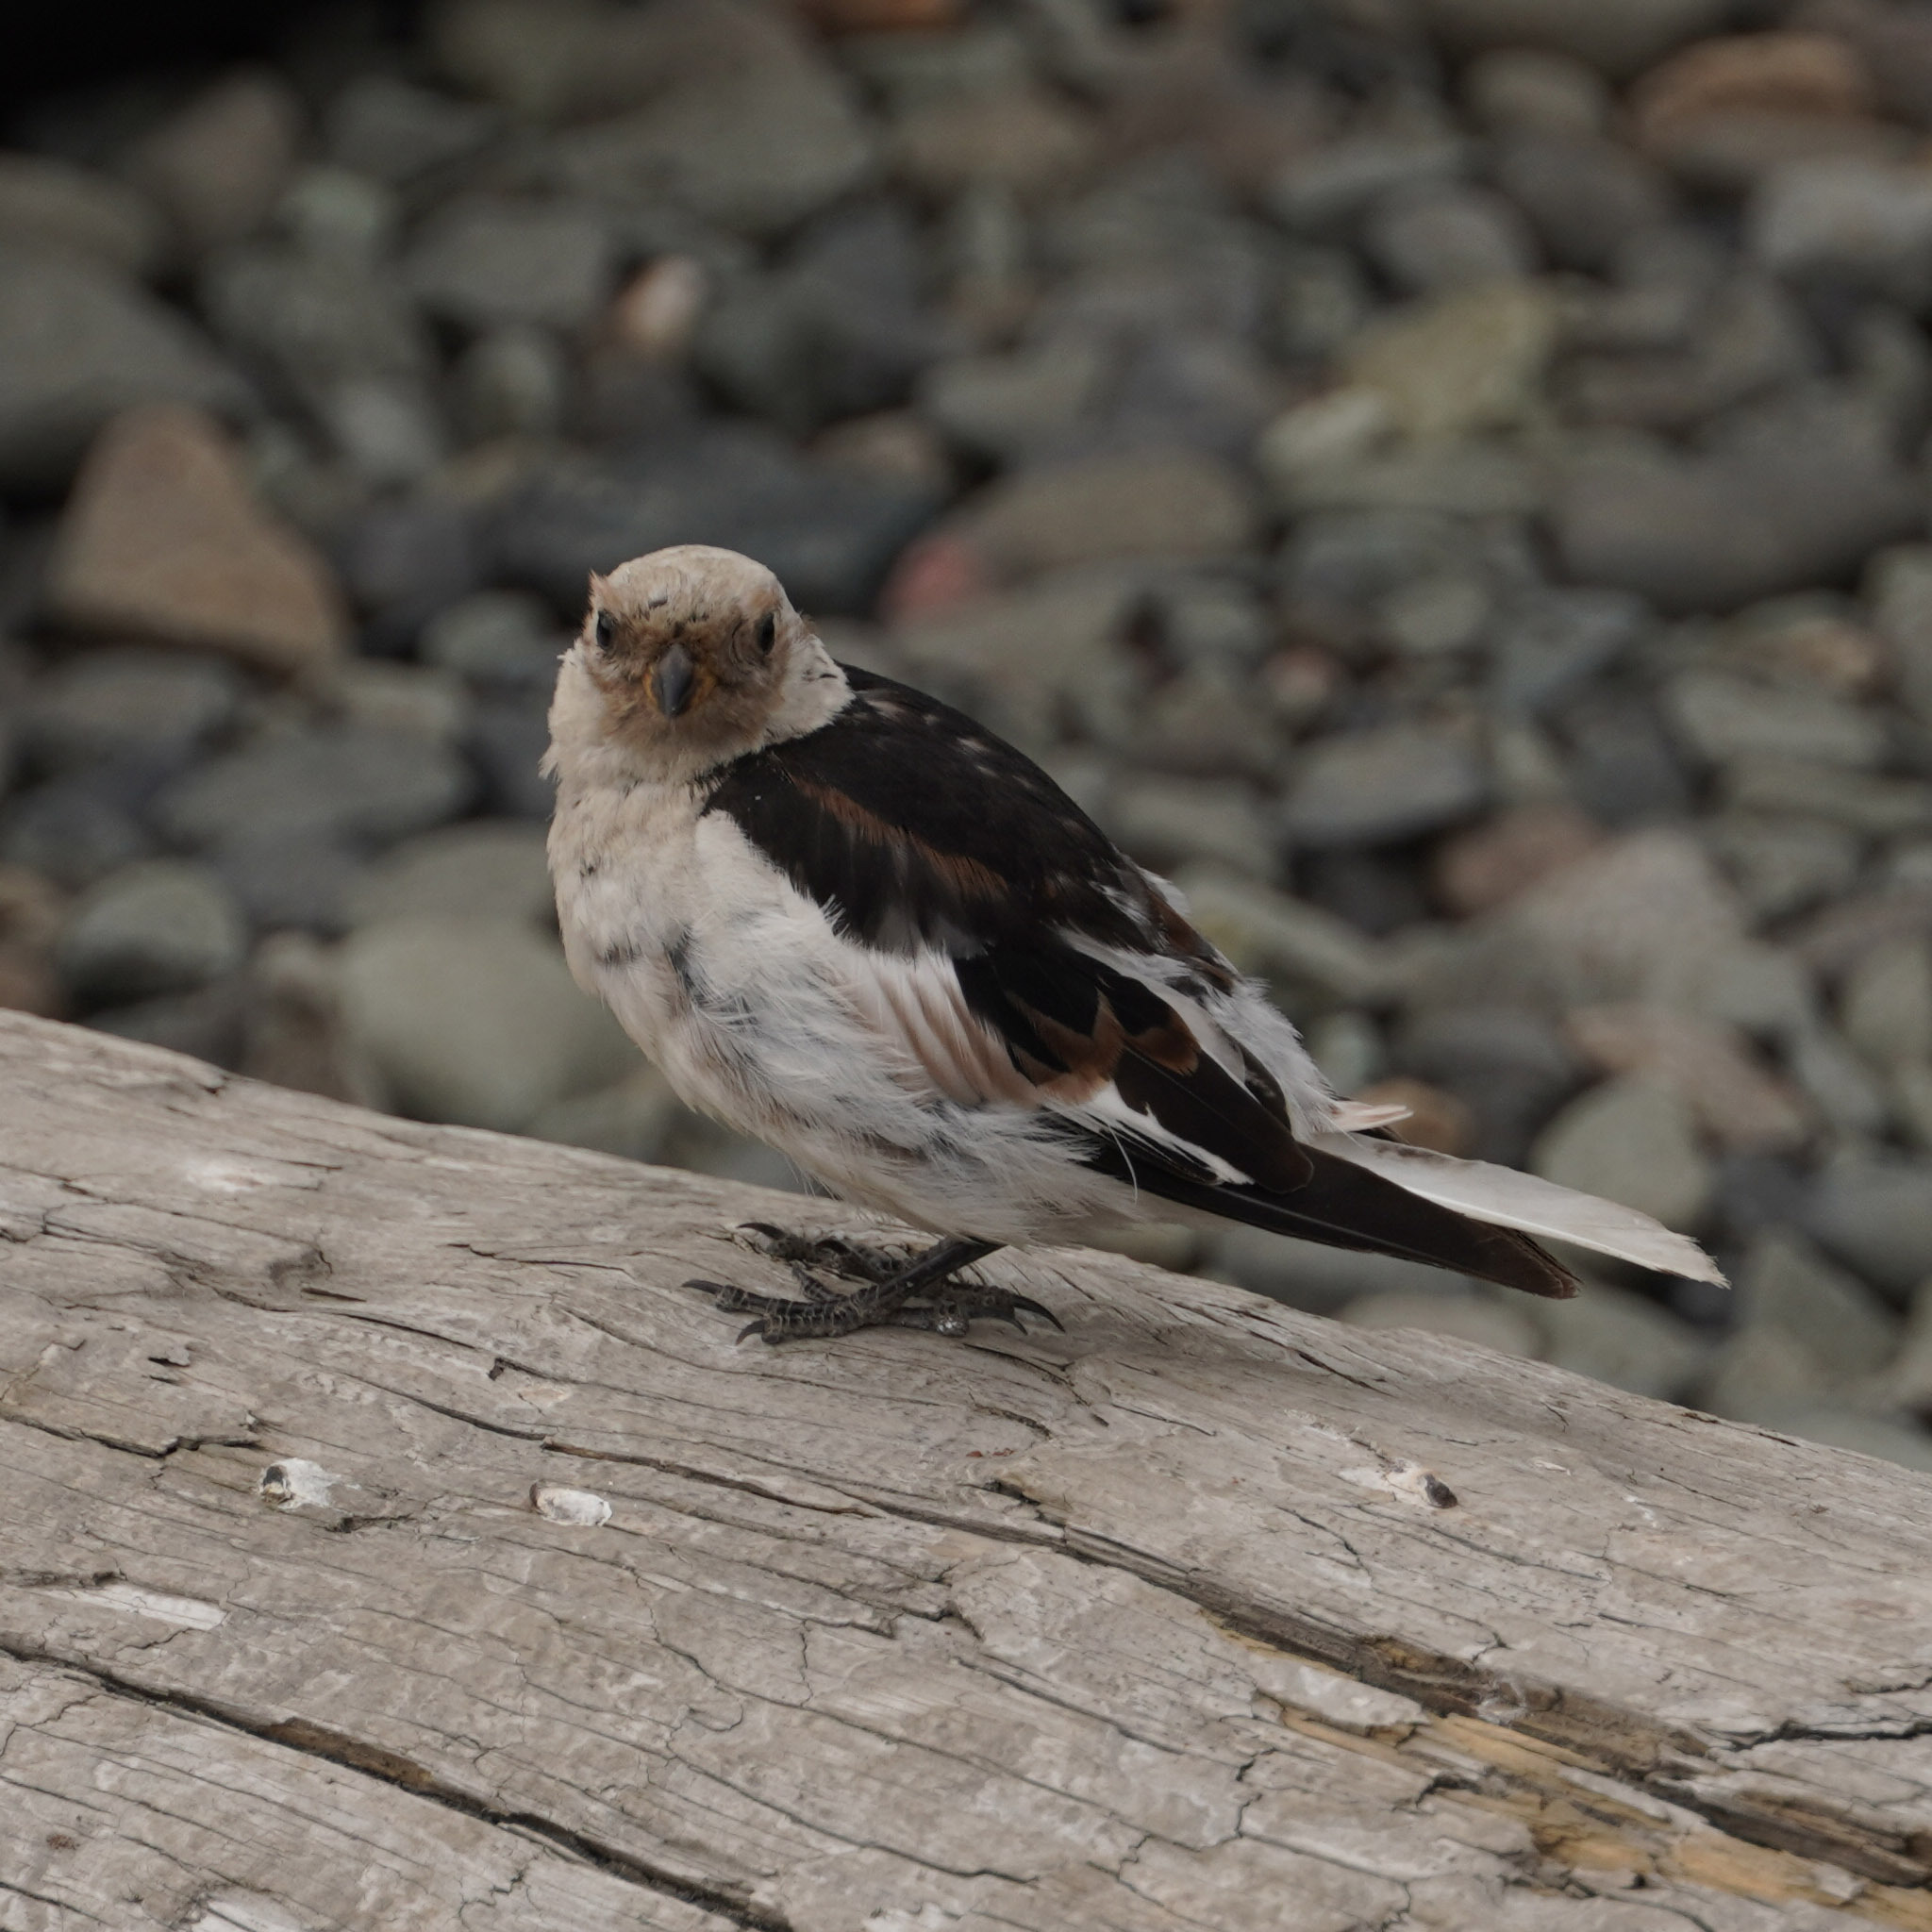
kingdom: Animalia
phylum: Chordata
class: Aves
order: Passeriformes
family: Calcariidae
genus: Plectrophenax
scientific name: Plectrophenax nivalis
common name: Snow bunting
